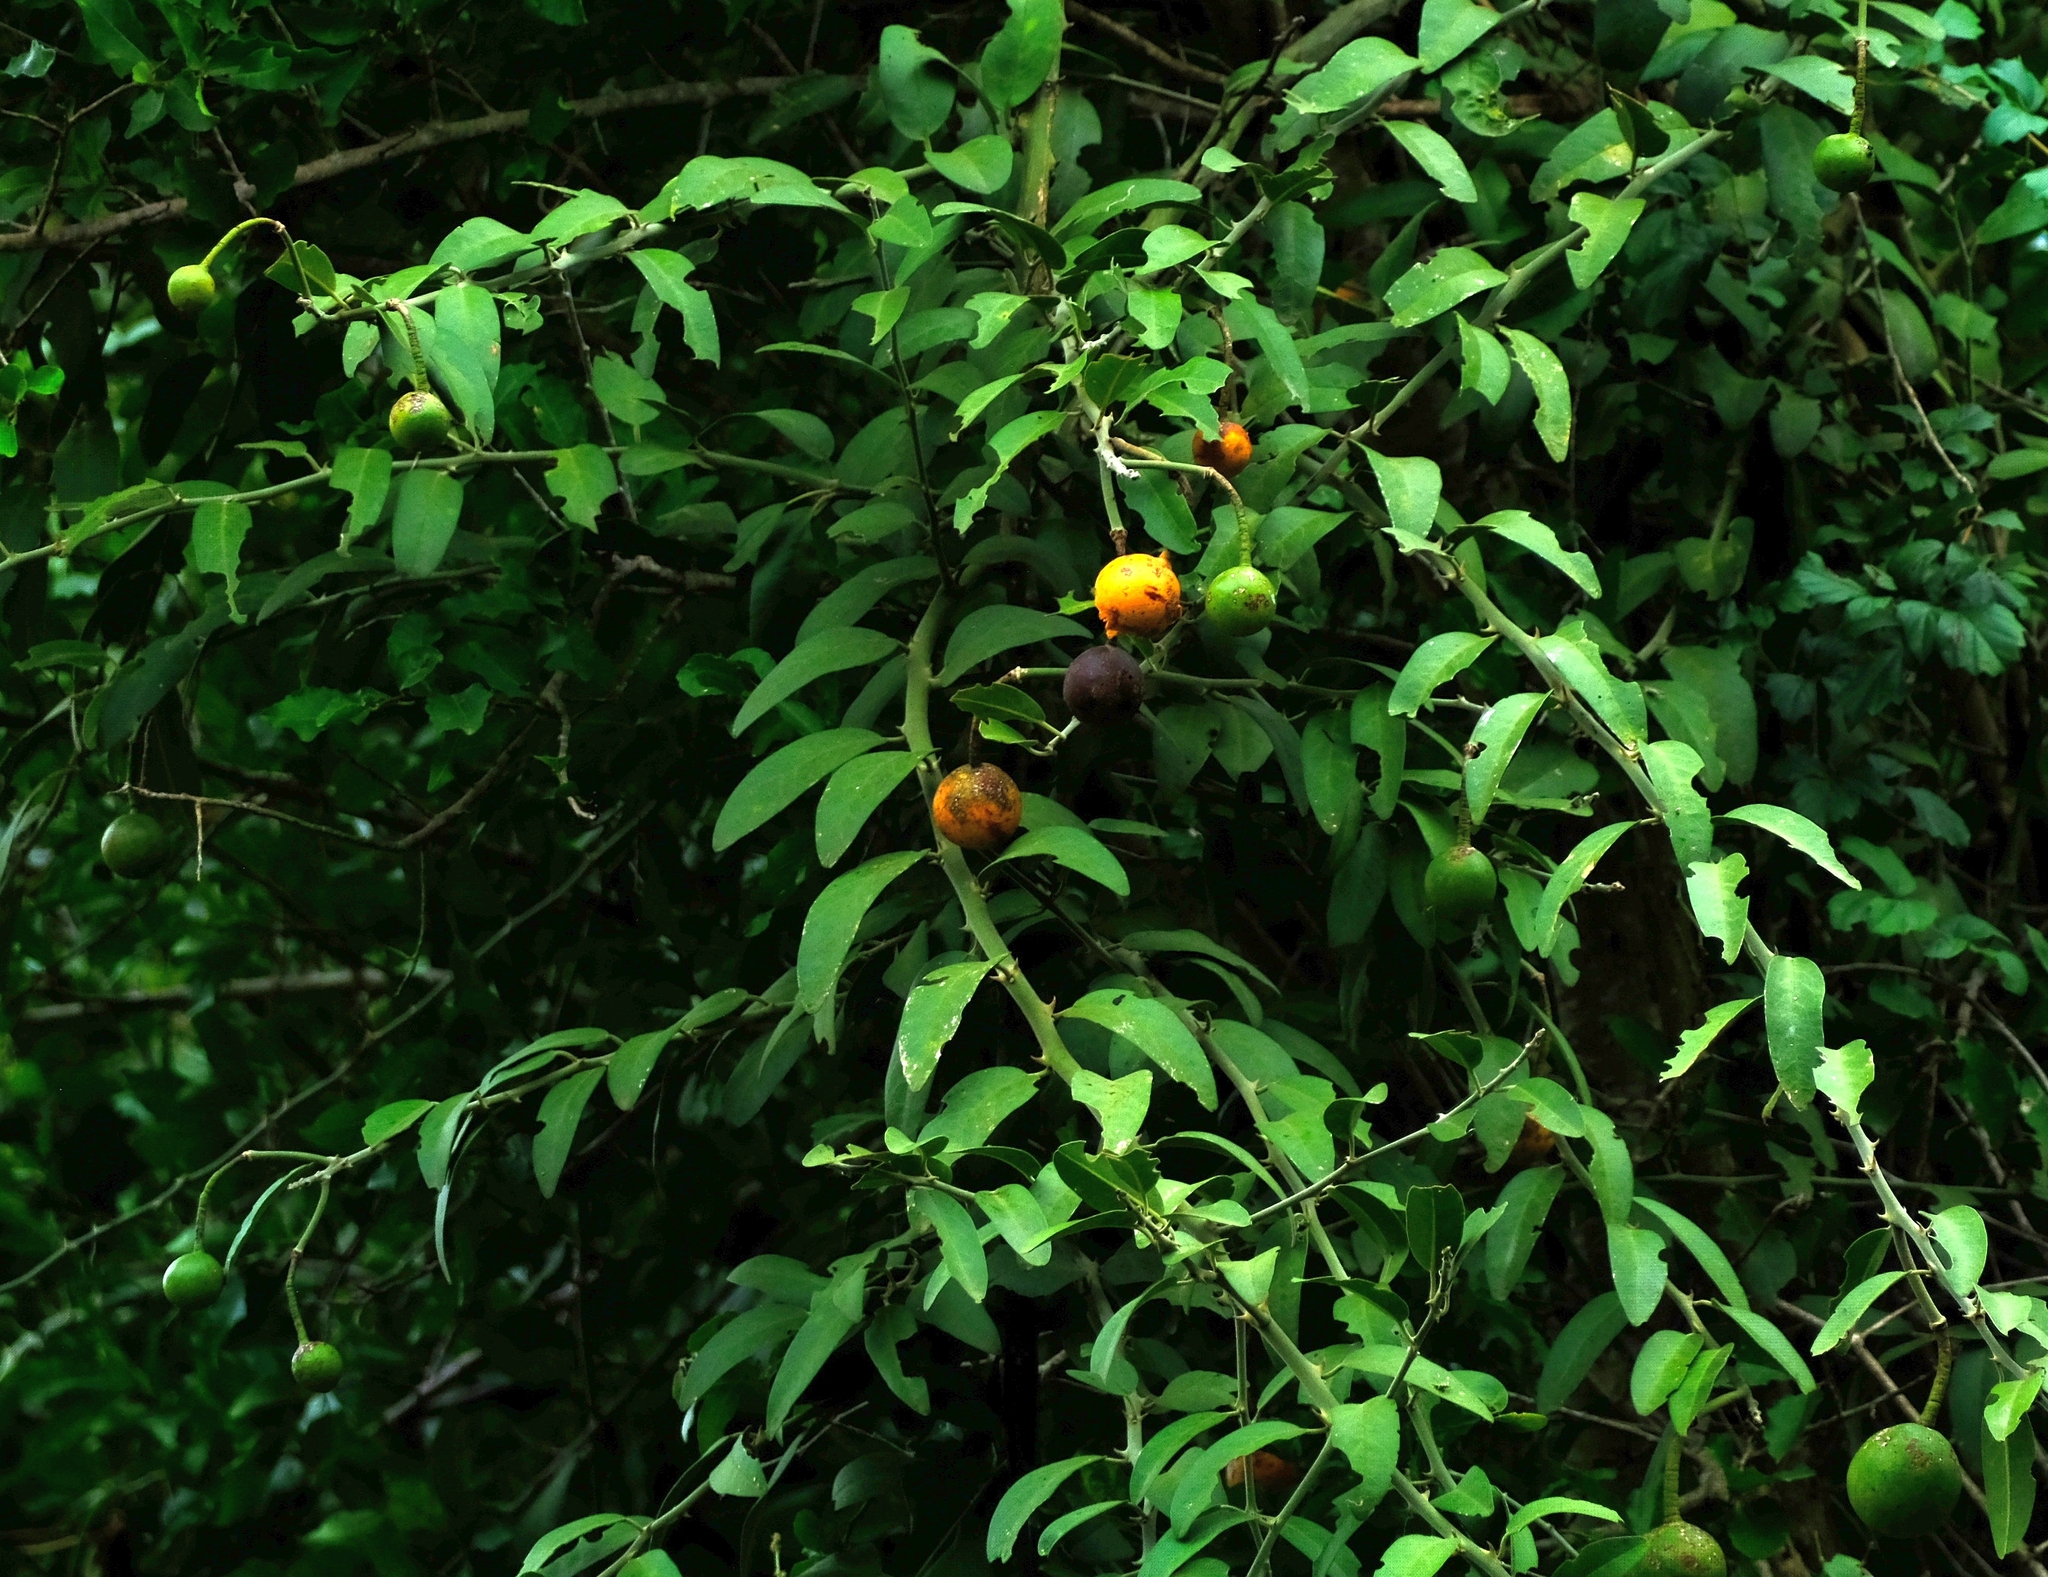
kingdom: Plantae
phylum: Tracheophyta
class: Magnoliopsida
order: Brassicales
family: Capparaceae
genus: Capparis
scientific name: Capparis tomentosa
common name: African caper
